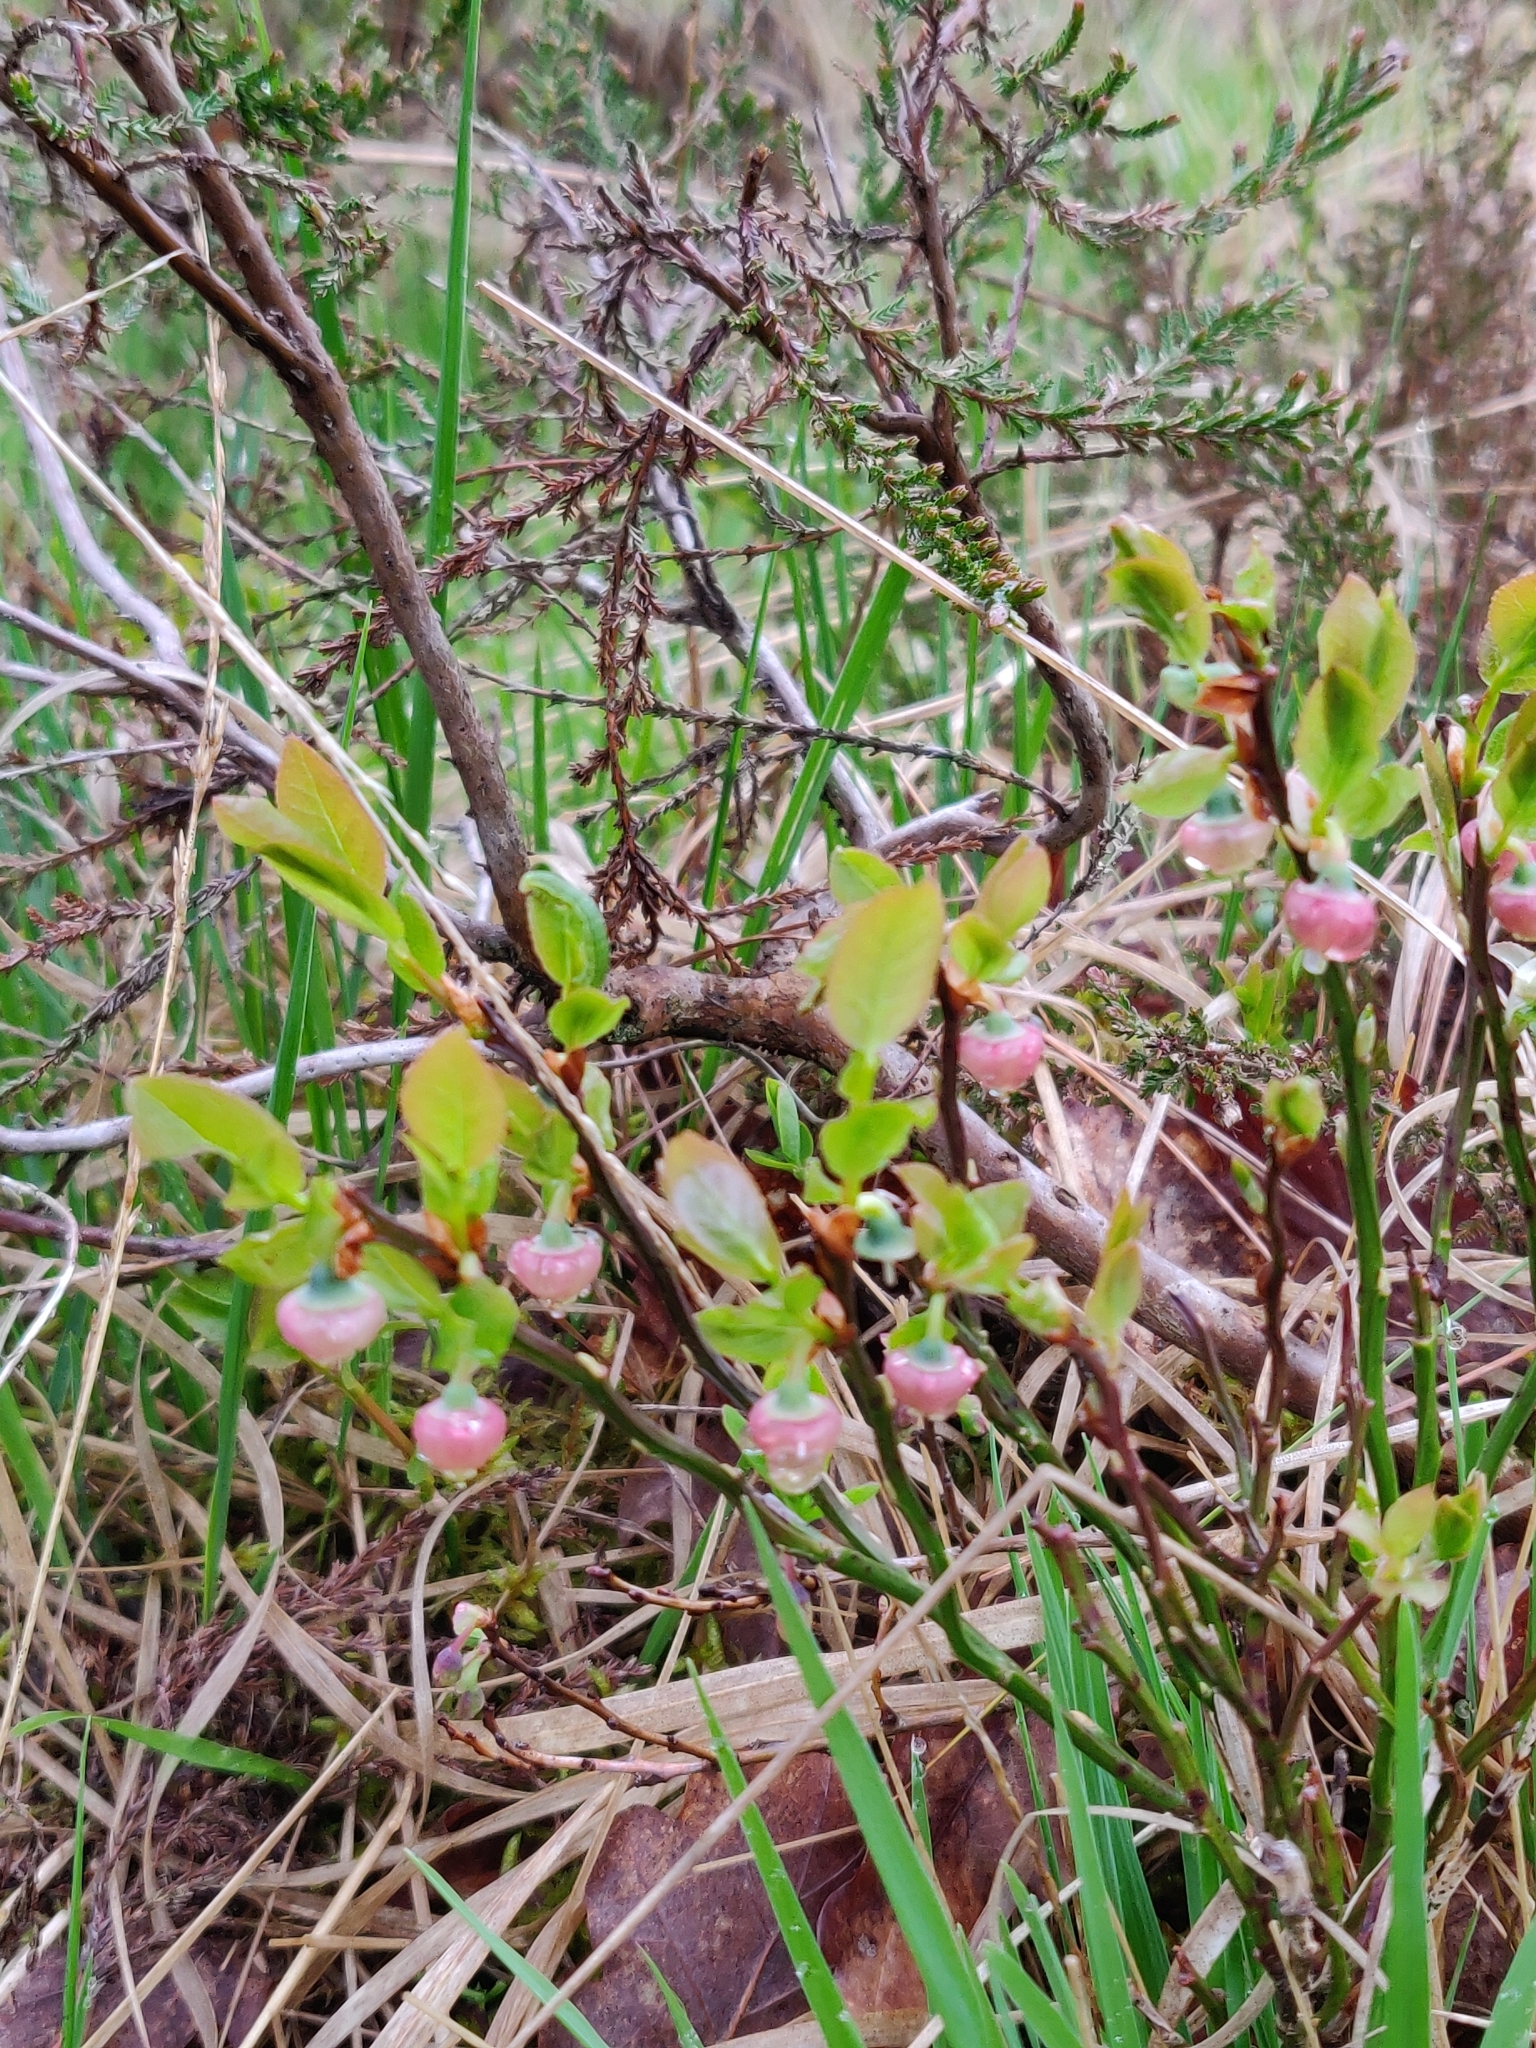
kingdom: Plantae
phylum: Tracheophyta
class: Magnoliopsida
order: Ericales
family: Ericaceae
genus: Vaccinium
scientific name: Vaccinium myrtillus
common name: Bilberry
